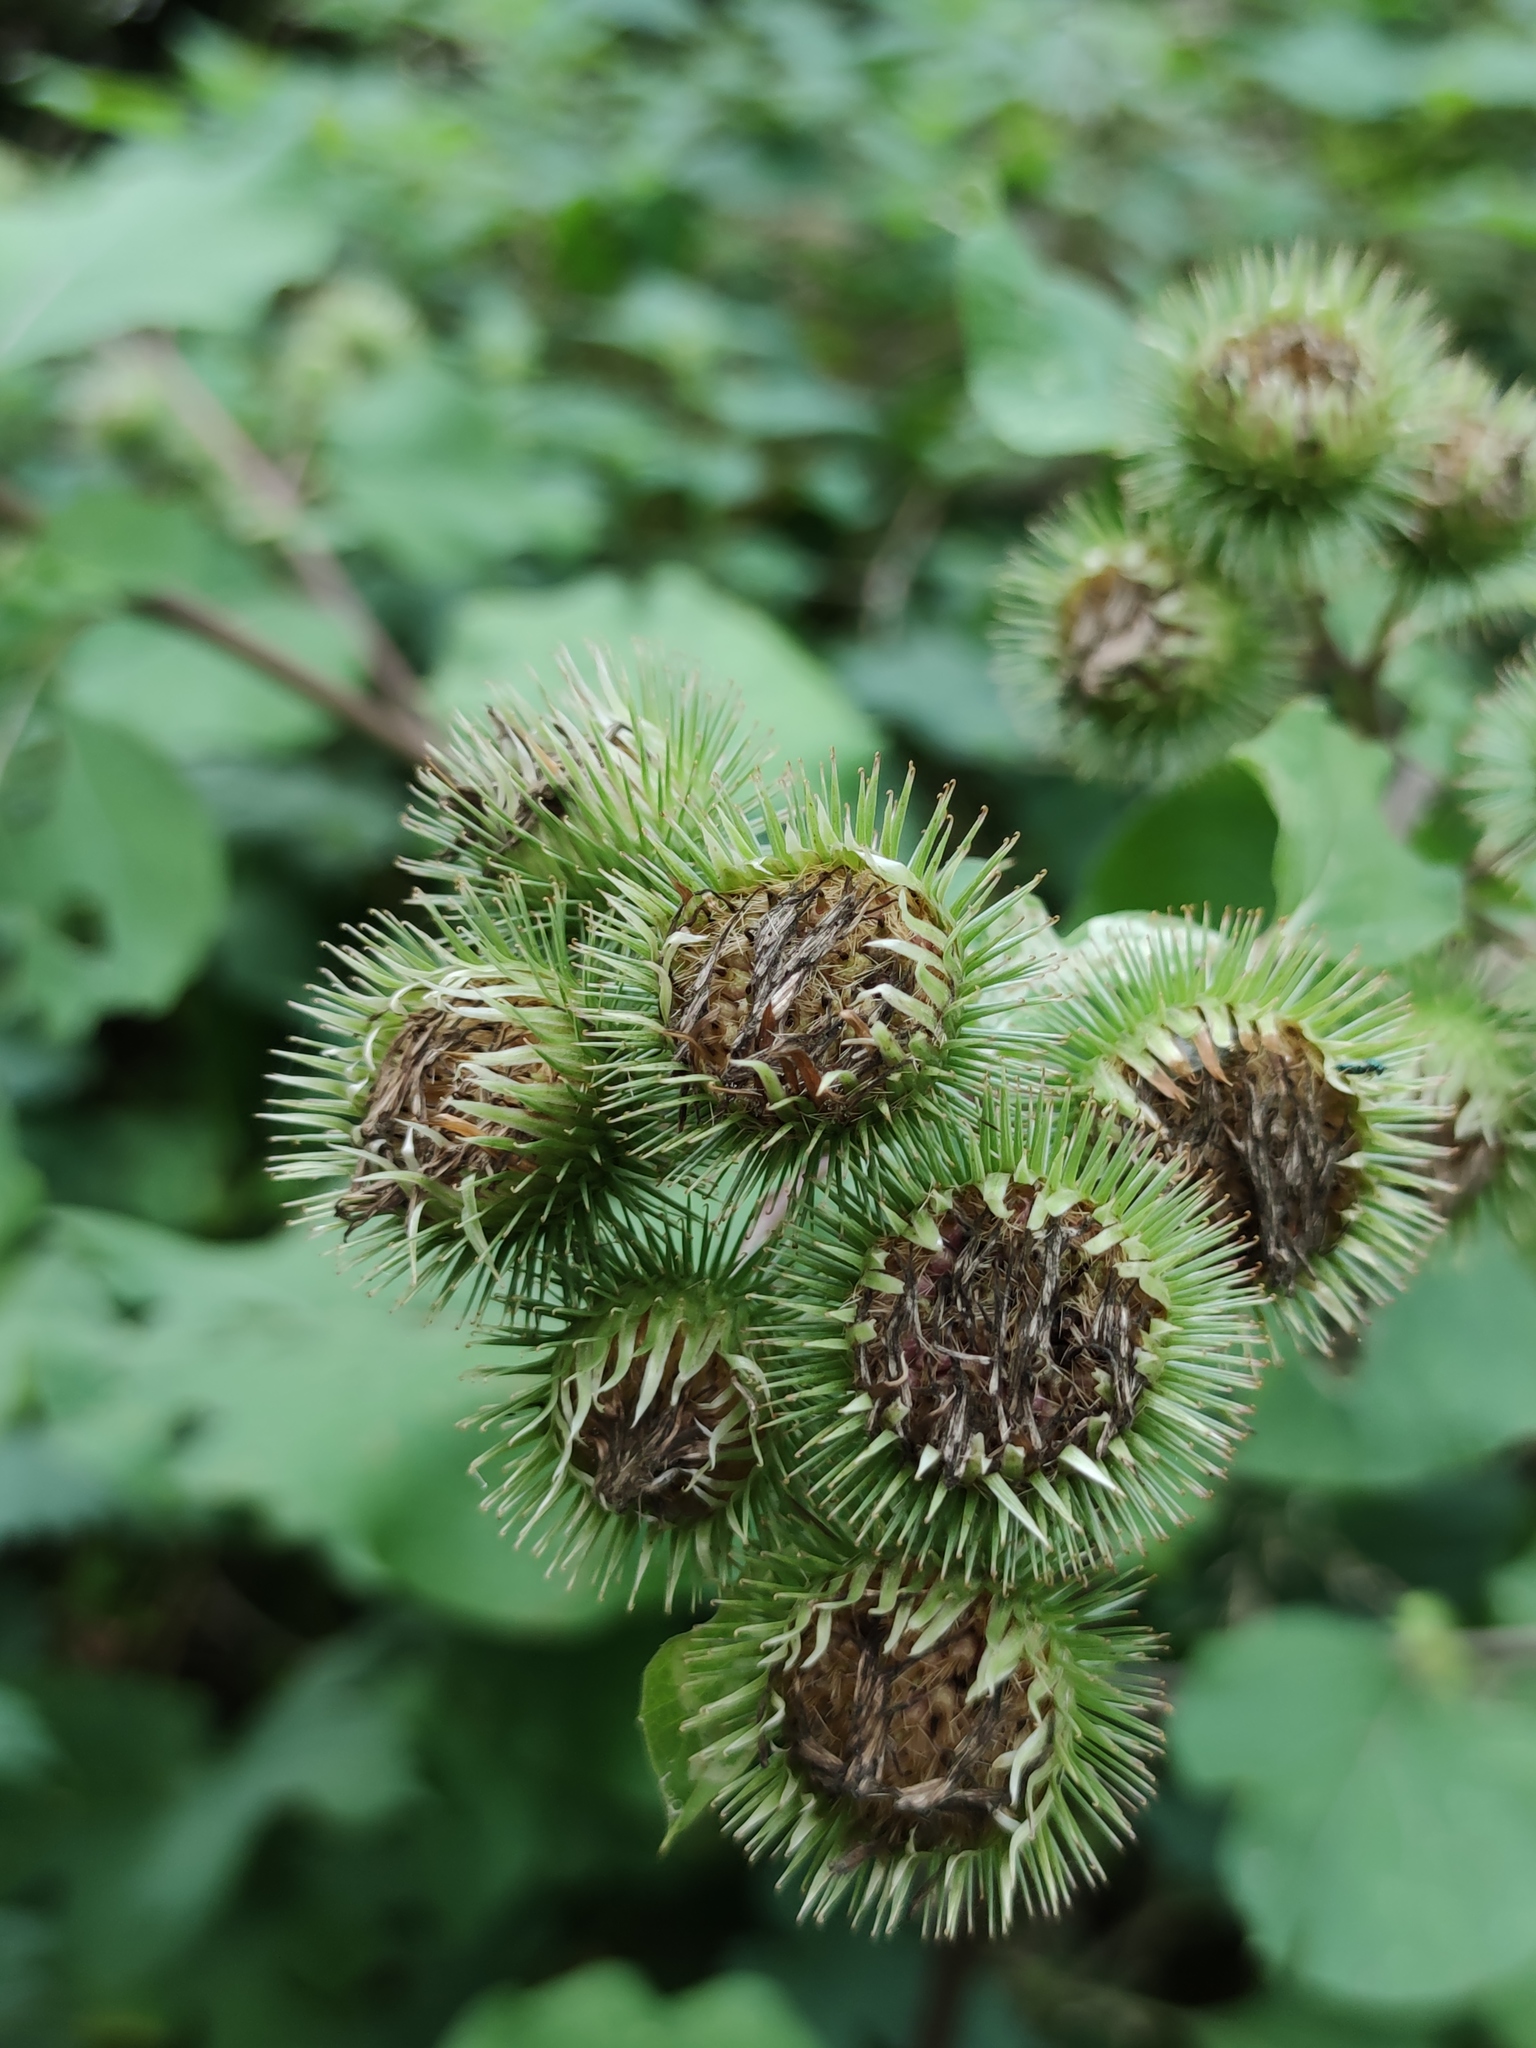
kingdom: Plantae
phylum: Tracheophyta
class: Magnoliopsida
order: Asterales
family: Asteraceae
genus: Arctium
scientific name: Arctium lappa
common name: Greater burdock
